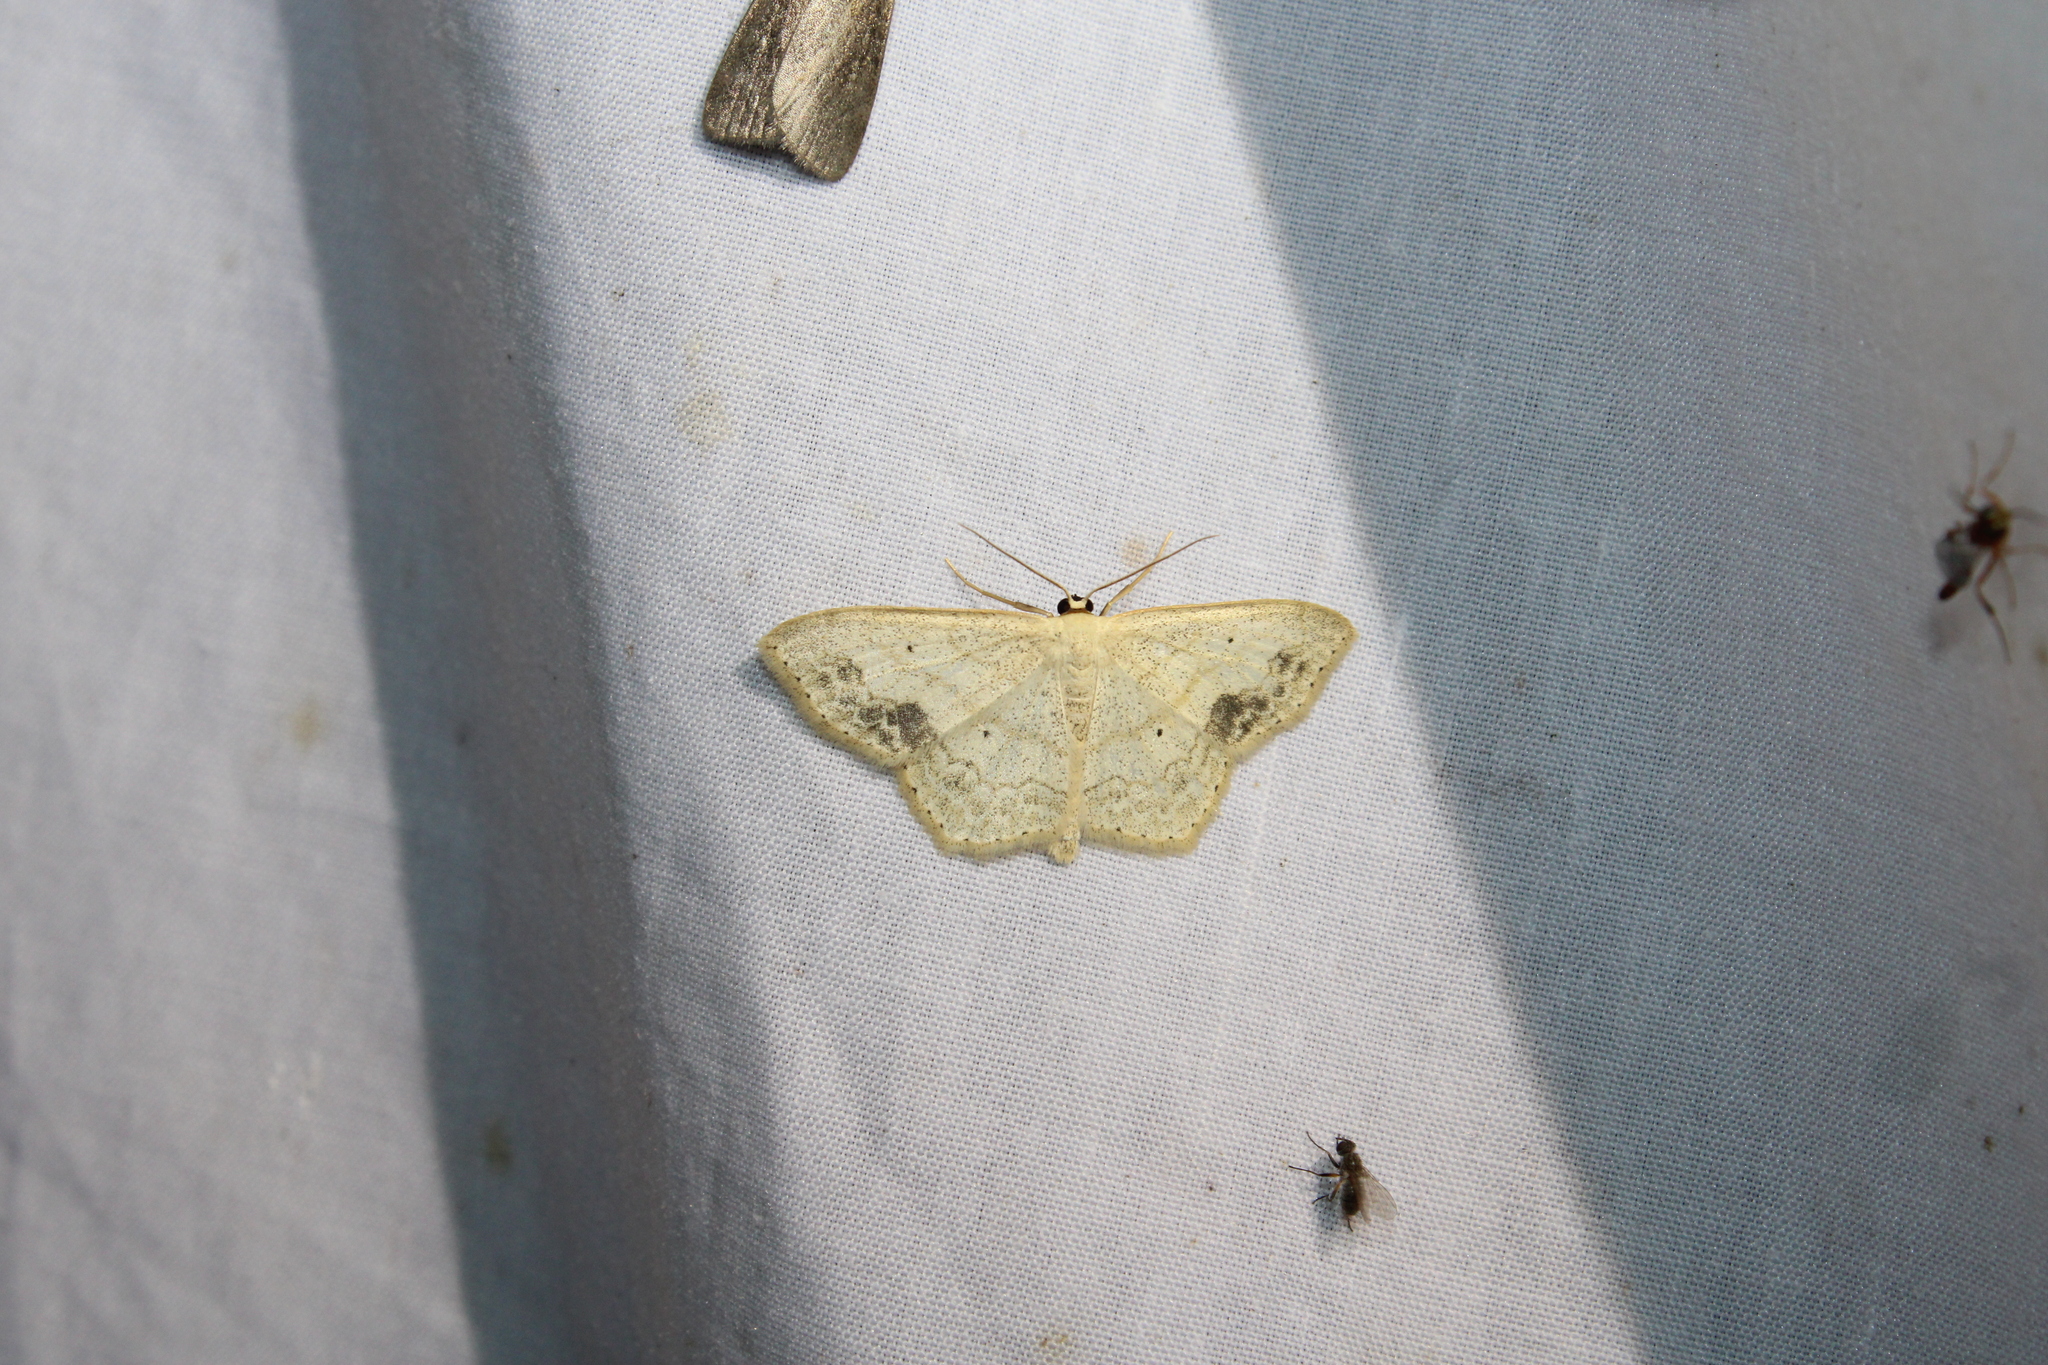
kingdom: Animalia
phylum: Arthropoda
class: Insecta
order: Lepidoptera
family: Geometridae
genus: Scopula
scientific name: Scopula limboundata
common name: Large lace border
